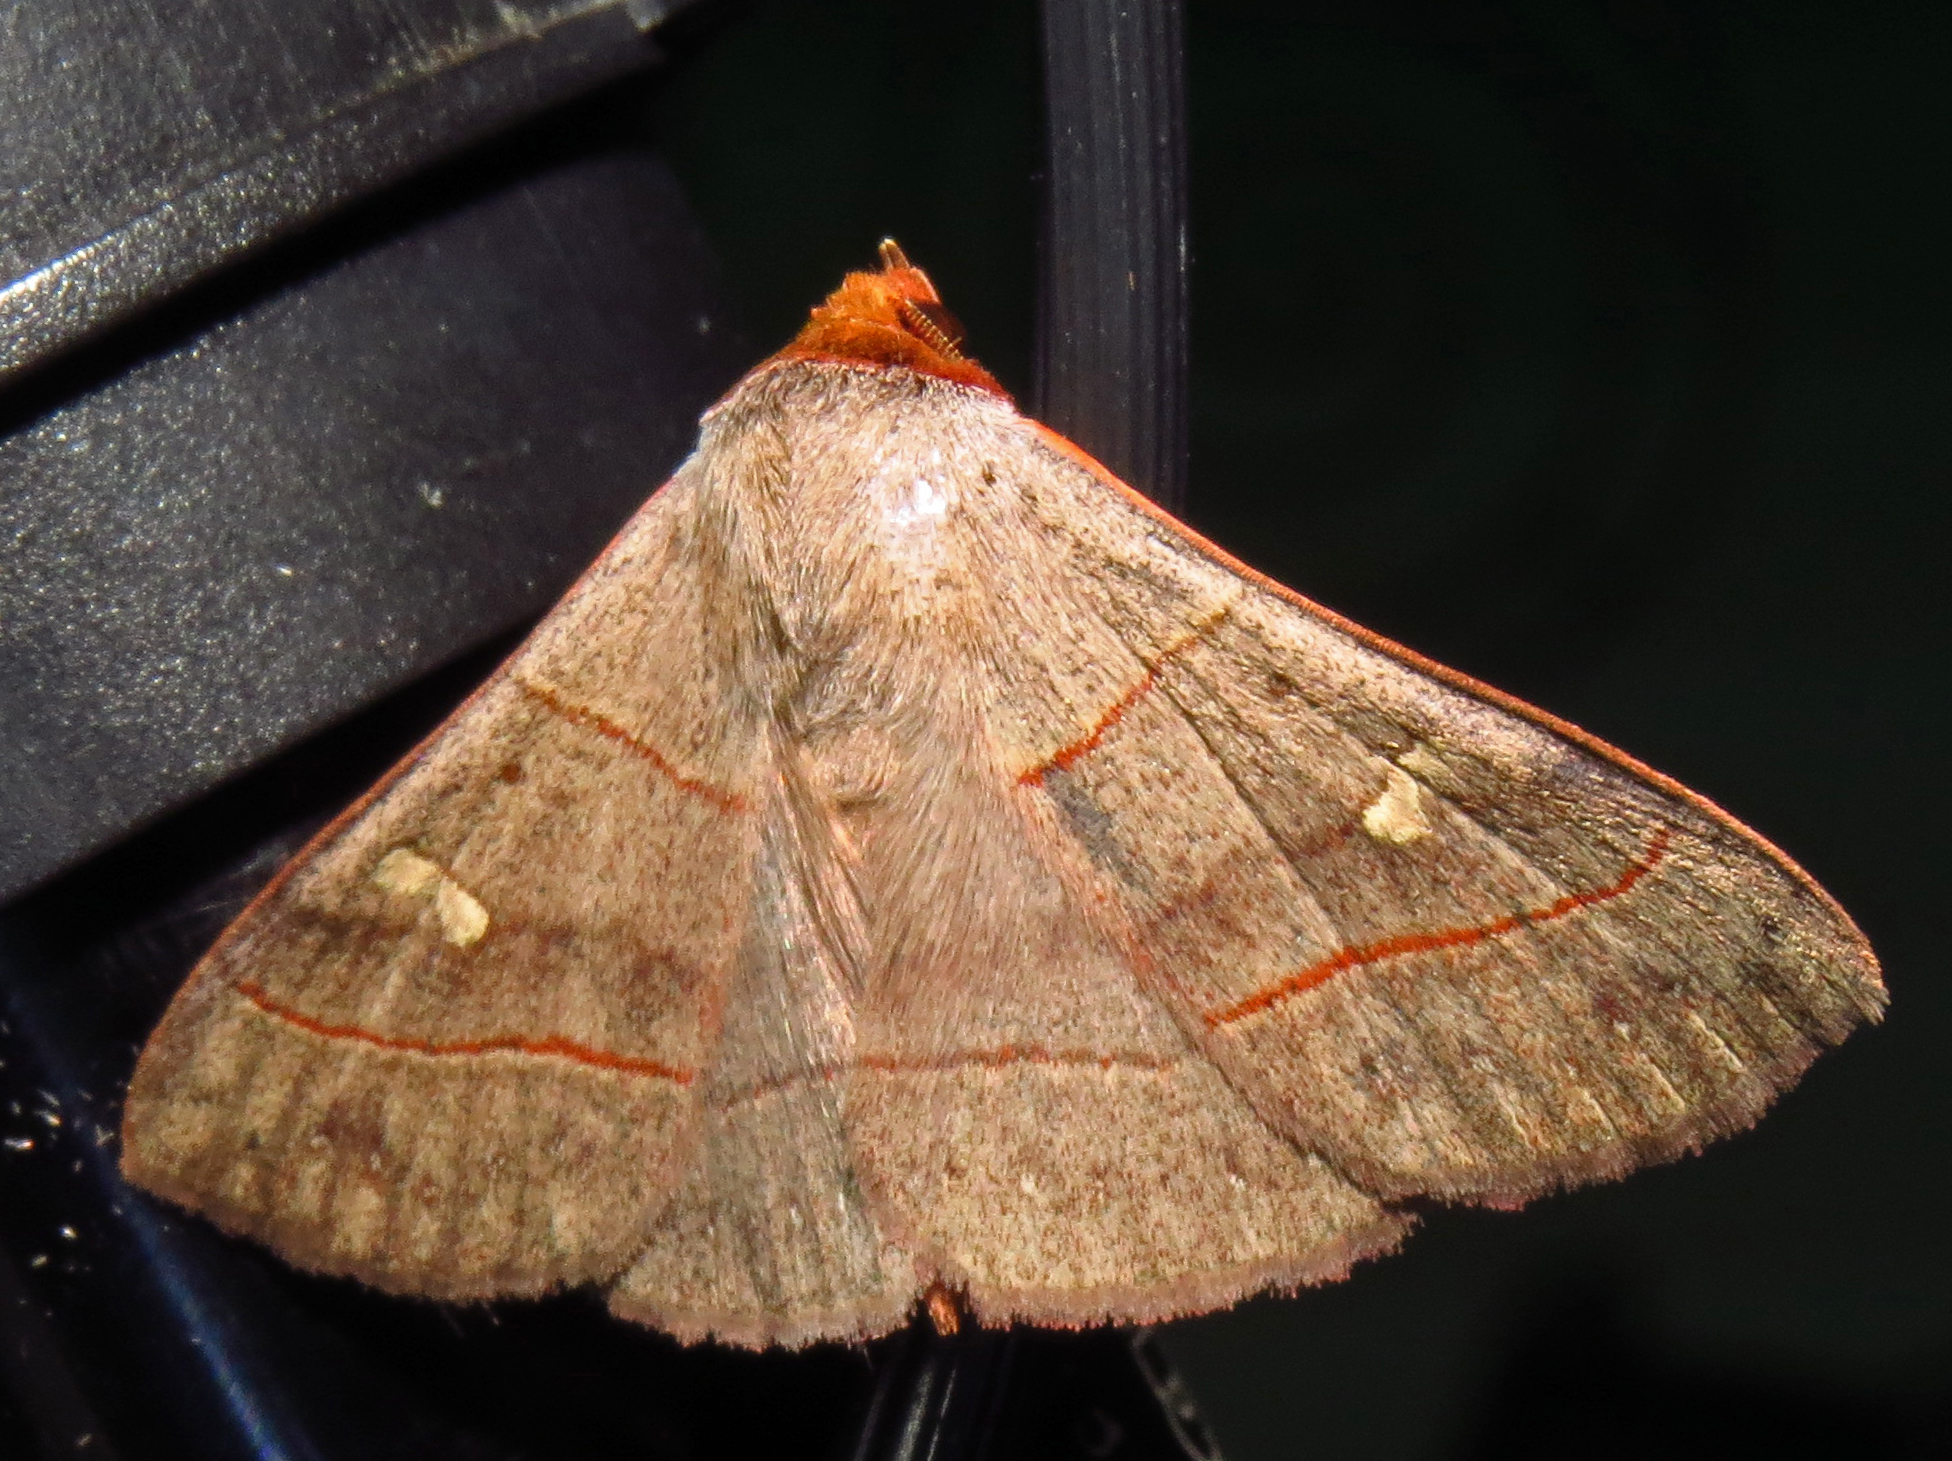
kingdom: Animalia
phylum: Arthropoda
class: Insecta
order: Lepidoptera
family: Erebidae
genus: Panopoda
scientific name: Panopoda rufimargo
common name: Red-lined panopoda moth
